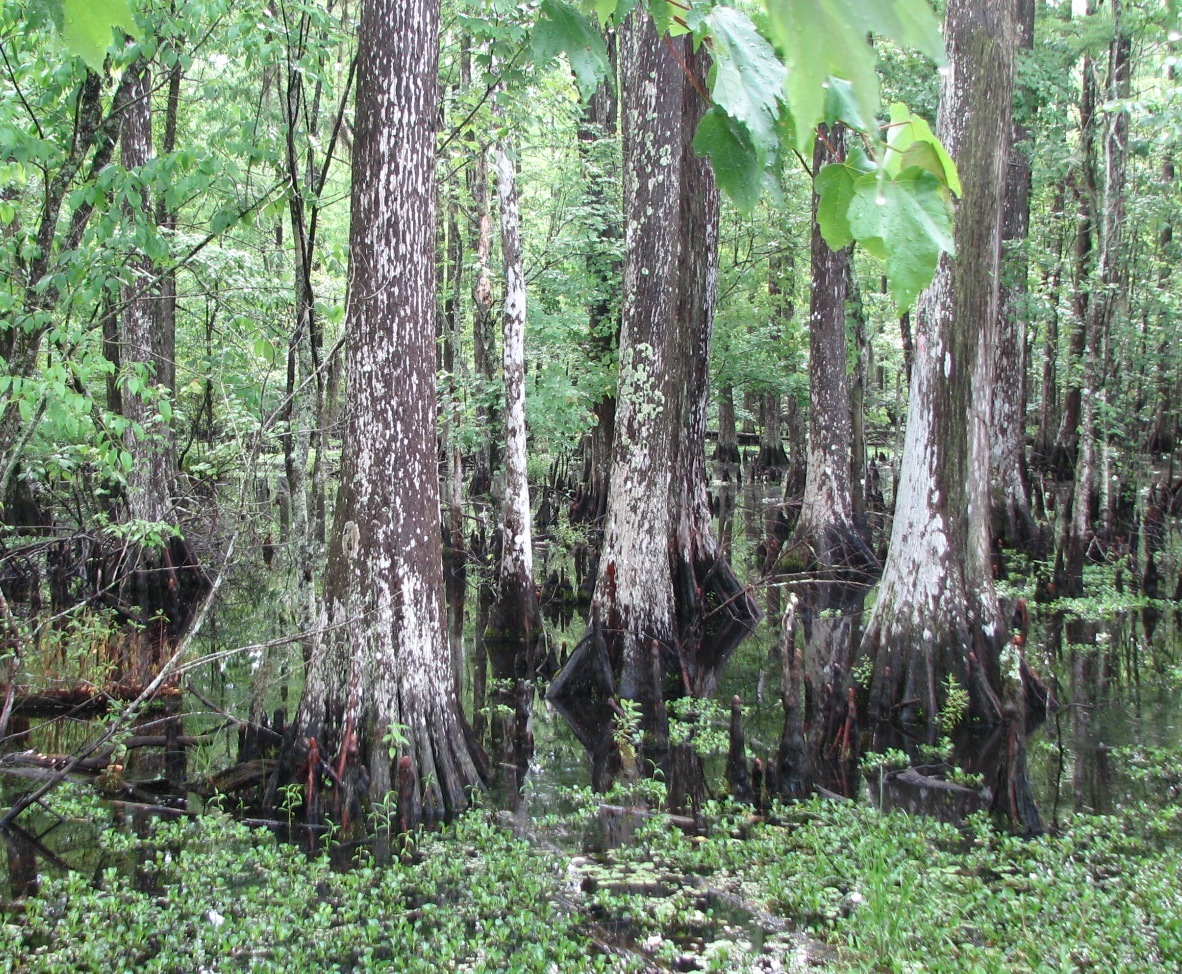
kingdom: Plantae
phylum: Tracheophyta
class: Pinopsida
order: Pinales
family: Cupressaceae
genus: Taxodium
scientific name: Taxodium distichum
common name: Bald cypress
